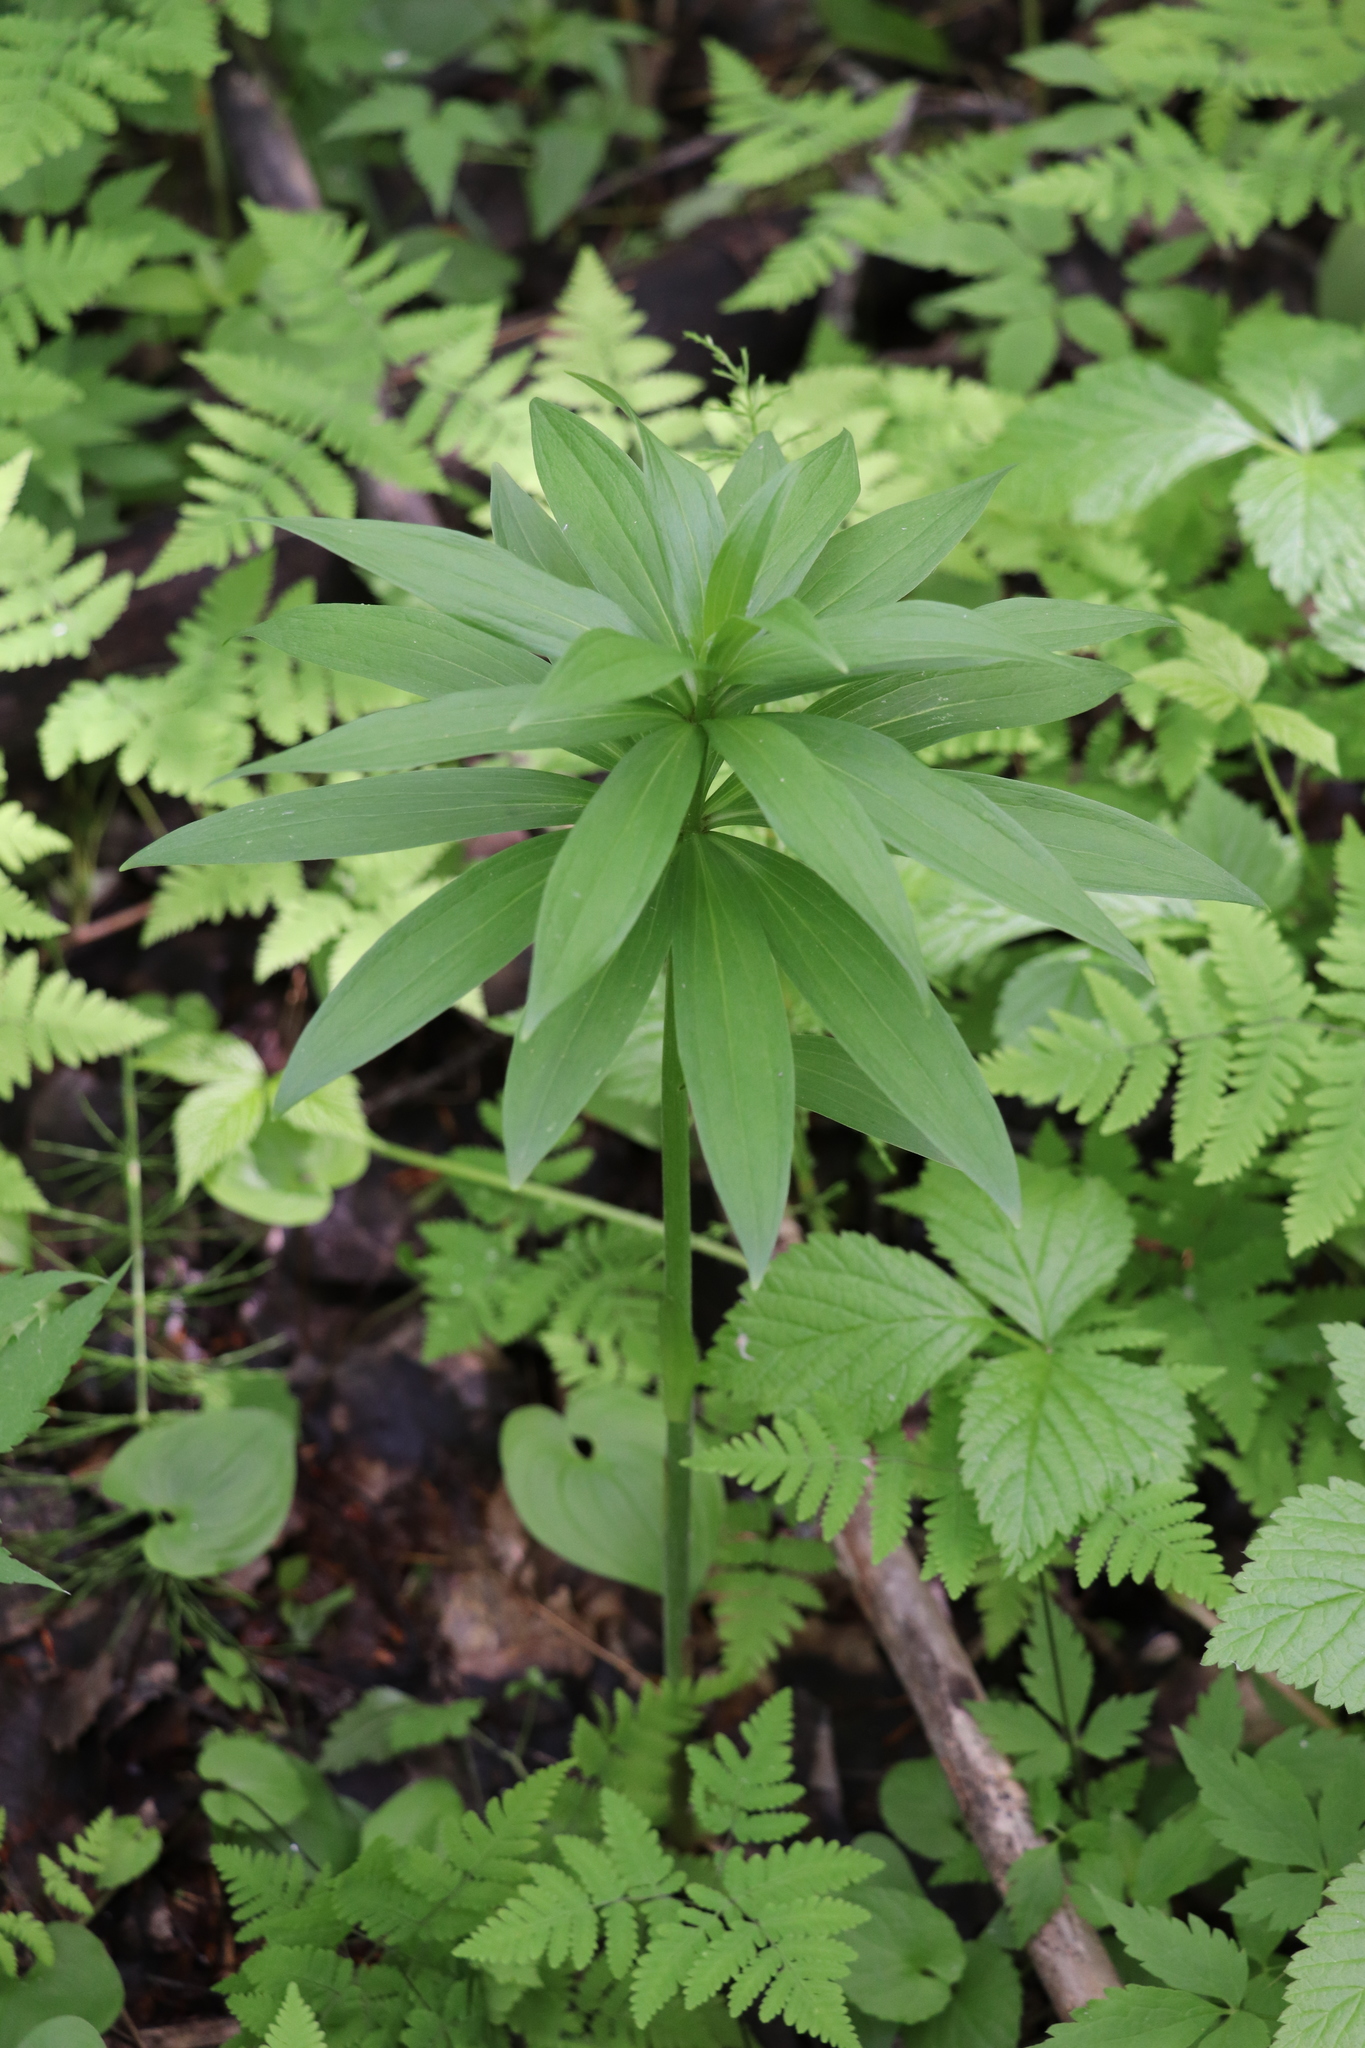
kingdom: Plantae
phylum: Tracheophyta
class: Liliopsida
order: Liliales
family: Liliaceae
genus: Lilium
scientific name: Lilium martagon
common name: Martagon lily
